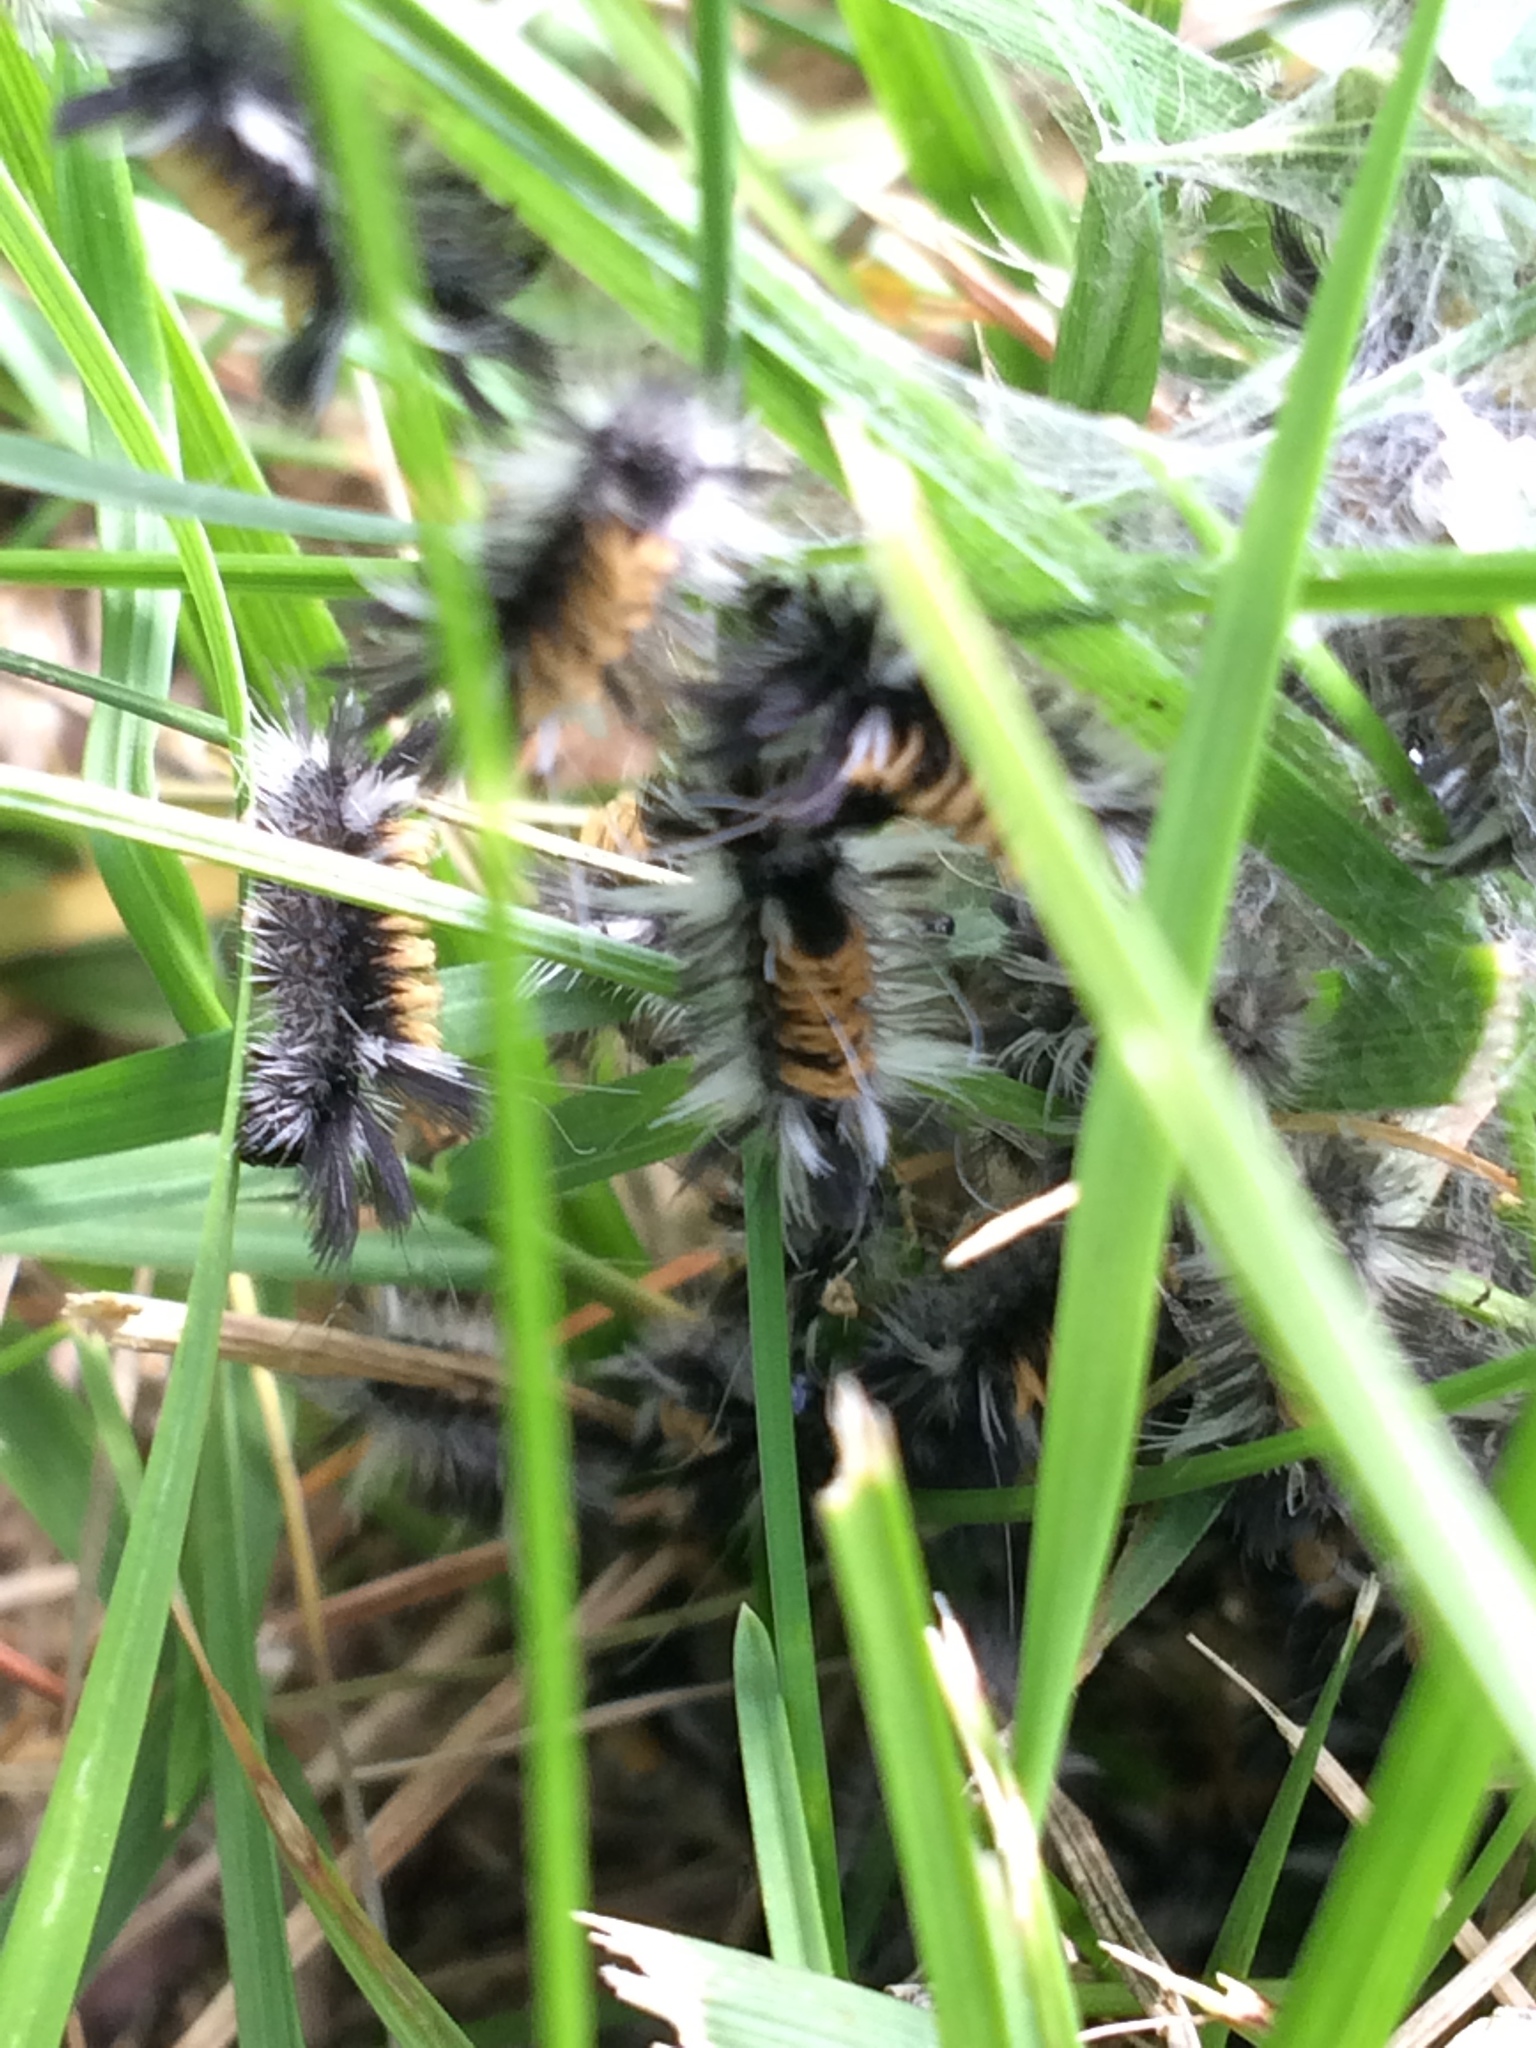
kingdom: Animalia
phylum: Arthropoda
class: Insecta
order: Lepidoptera
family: Erebidae
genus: Euchaetes
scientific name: Euchaetes egle
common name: Milkweed tussock moth
